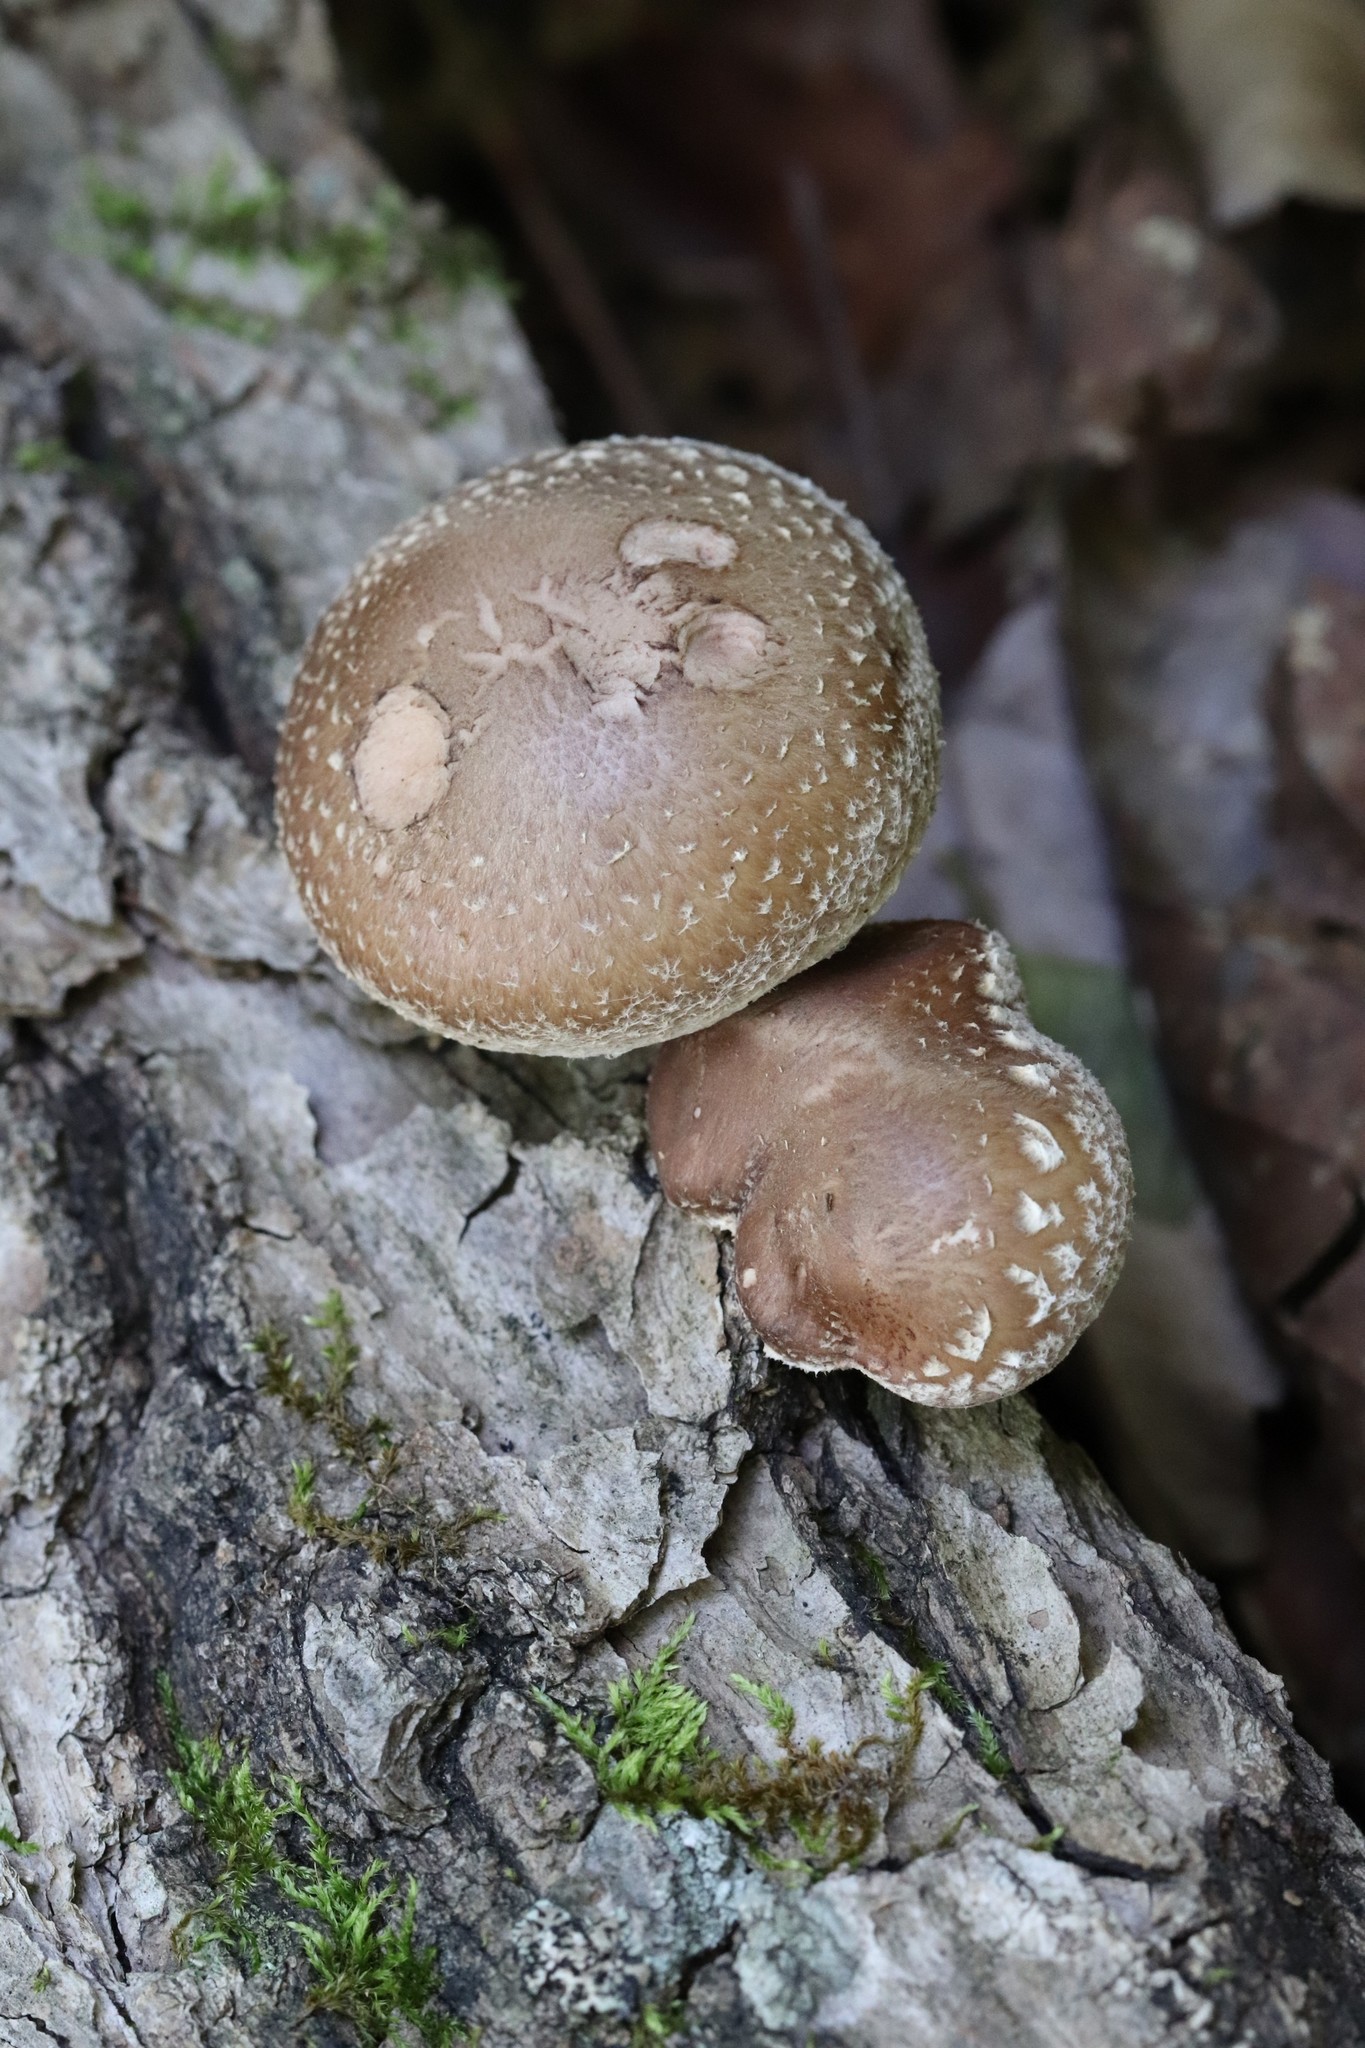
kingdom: Fungi
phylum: Basidiomycota
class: Agaricomycetes
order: Agaricales
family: Omphalotaceae
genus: Lentinula
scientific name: Lentinula edodes
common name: Shiitake
